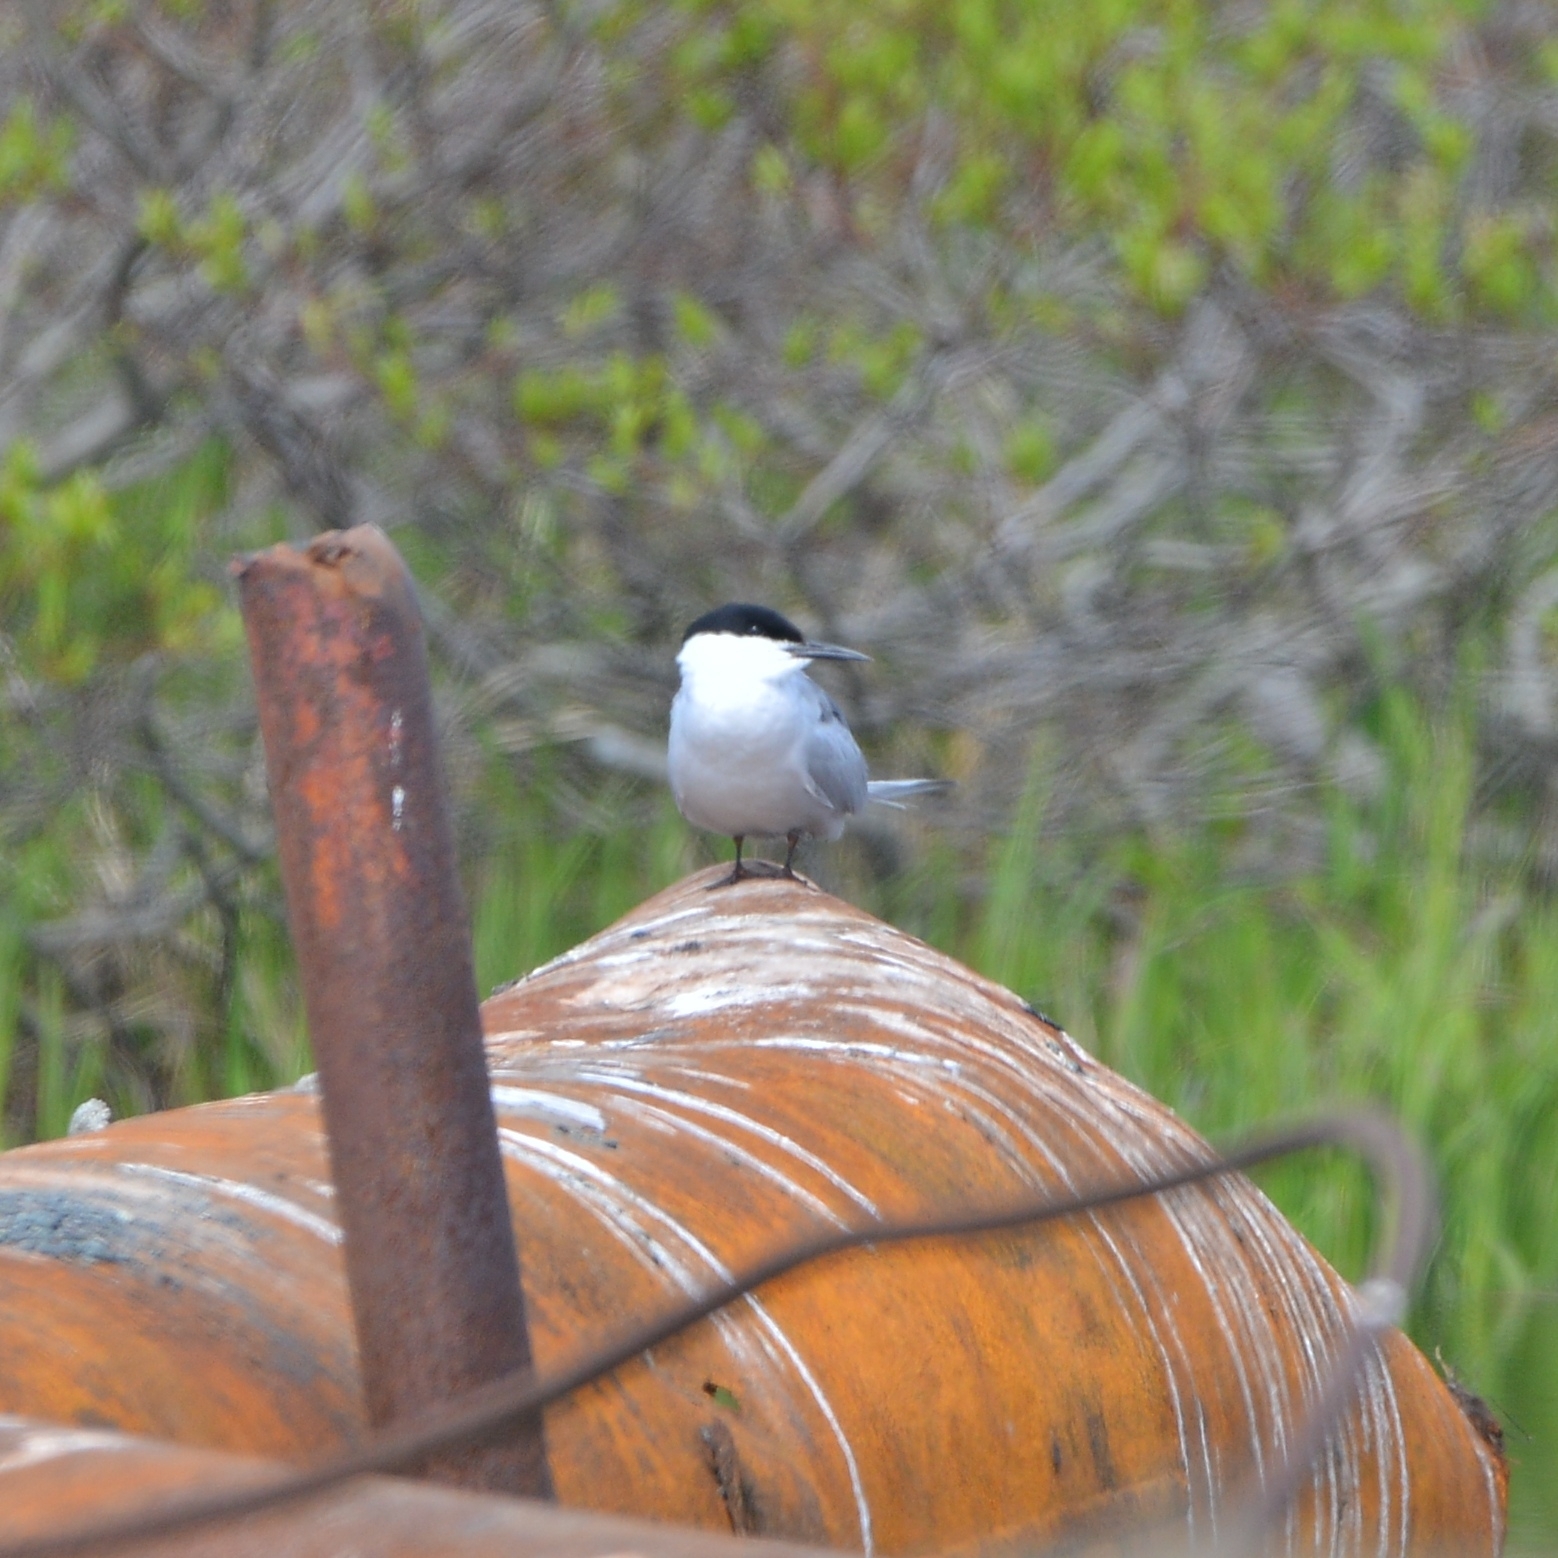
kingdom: Animalia
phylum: Chordata
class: Aves
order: Charadriiformes
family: Laridae
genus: Sterna
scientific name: Sterna hirundo
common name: Common tern
